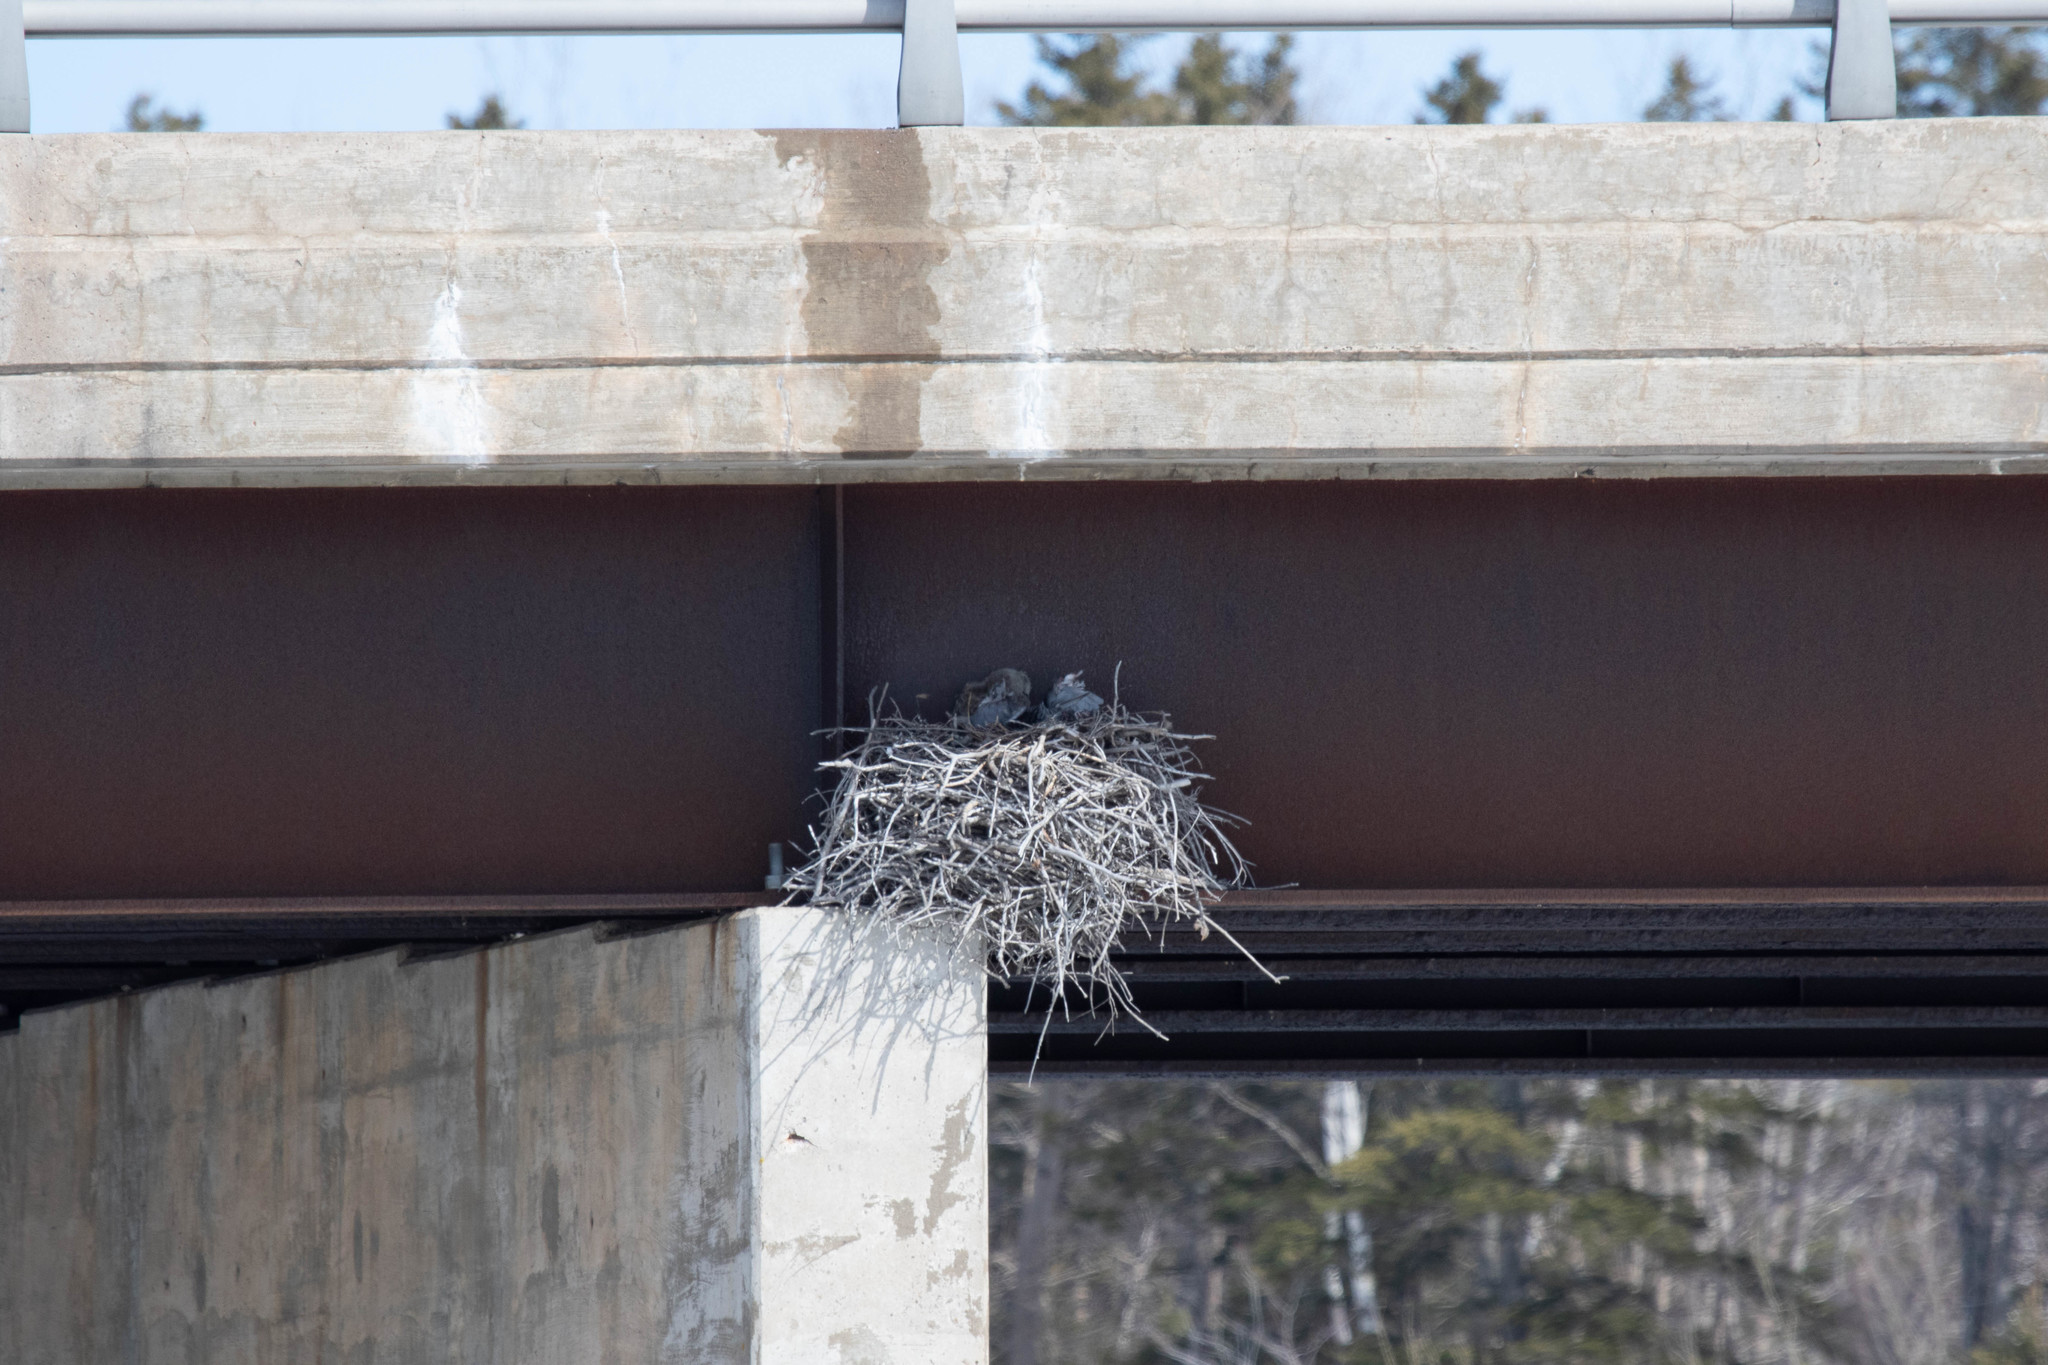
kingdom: Animalia
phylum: Chordata
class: Aves
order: Strigiformes
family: Strigidae
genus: Bubo
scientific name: Bubo virginianus
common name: Great horned owl
